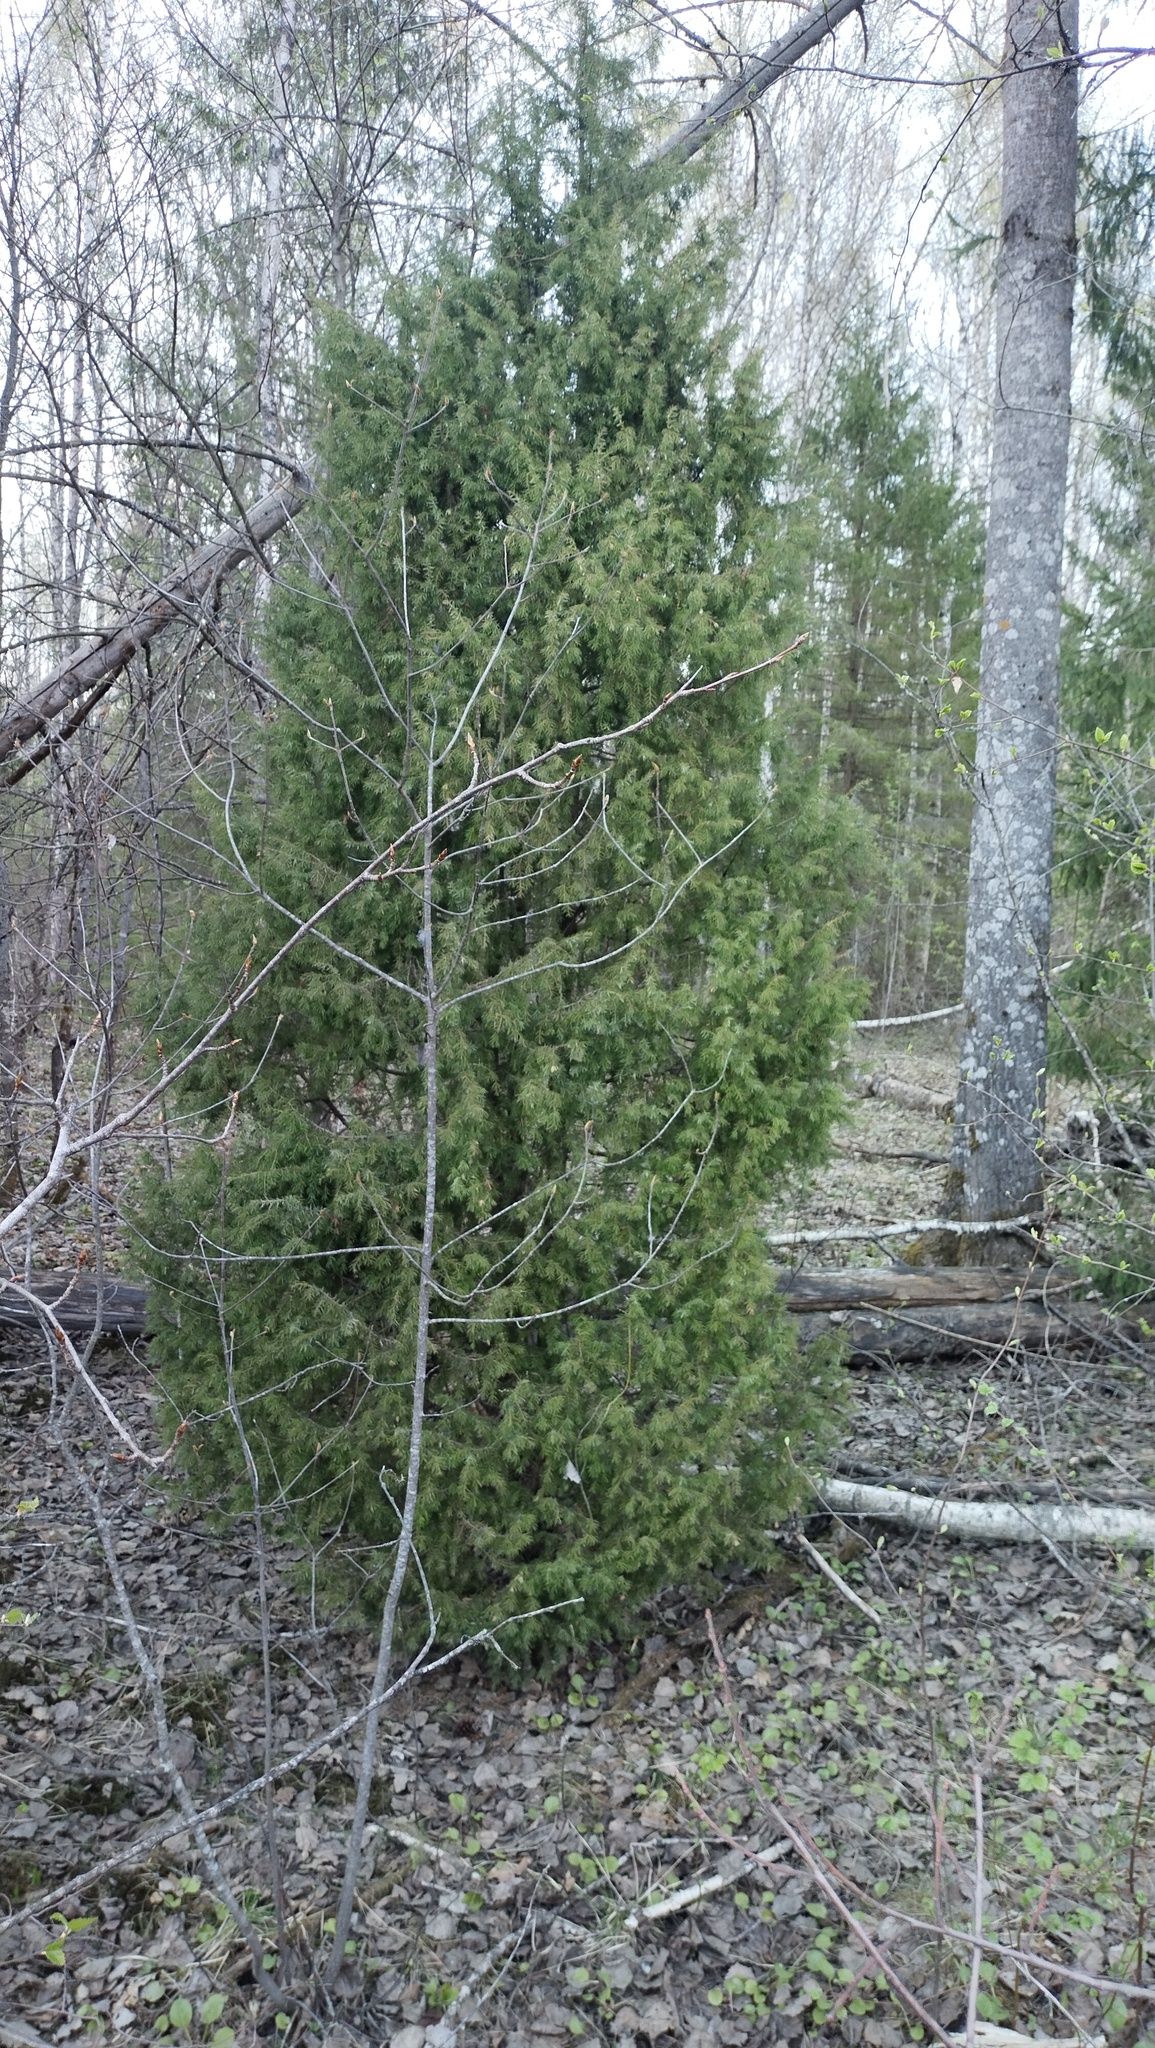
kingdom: Plantae
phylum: Tracheophyta
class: Pinopsida
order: Pinales
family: Cupressaceae
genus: Juniperus
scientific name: Juniperus communis
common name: Common juniper
